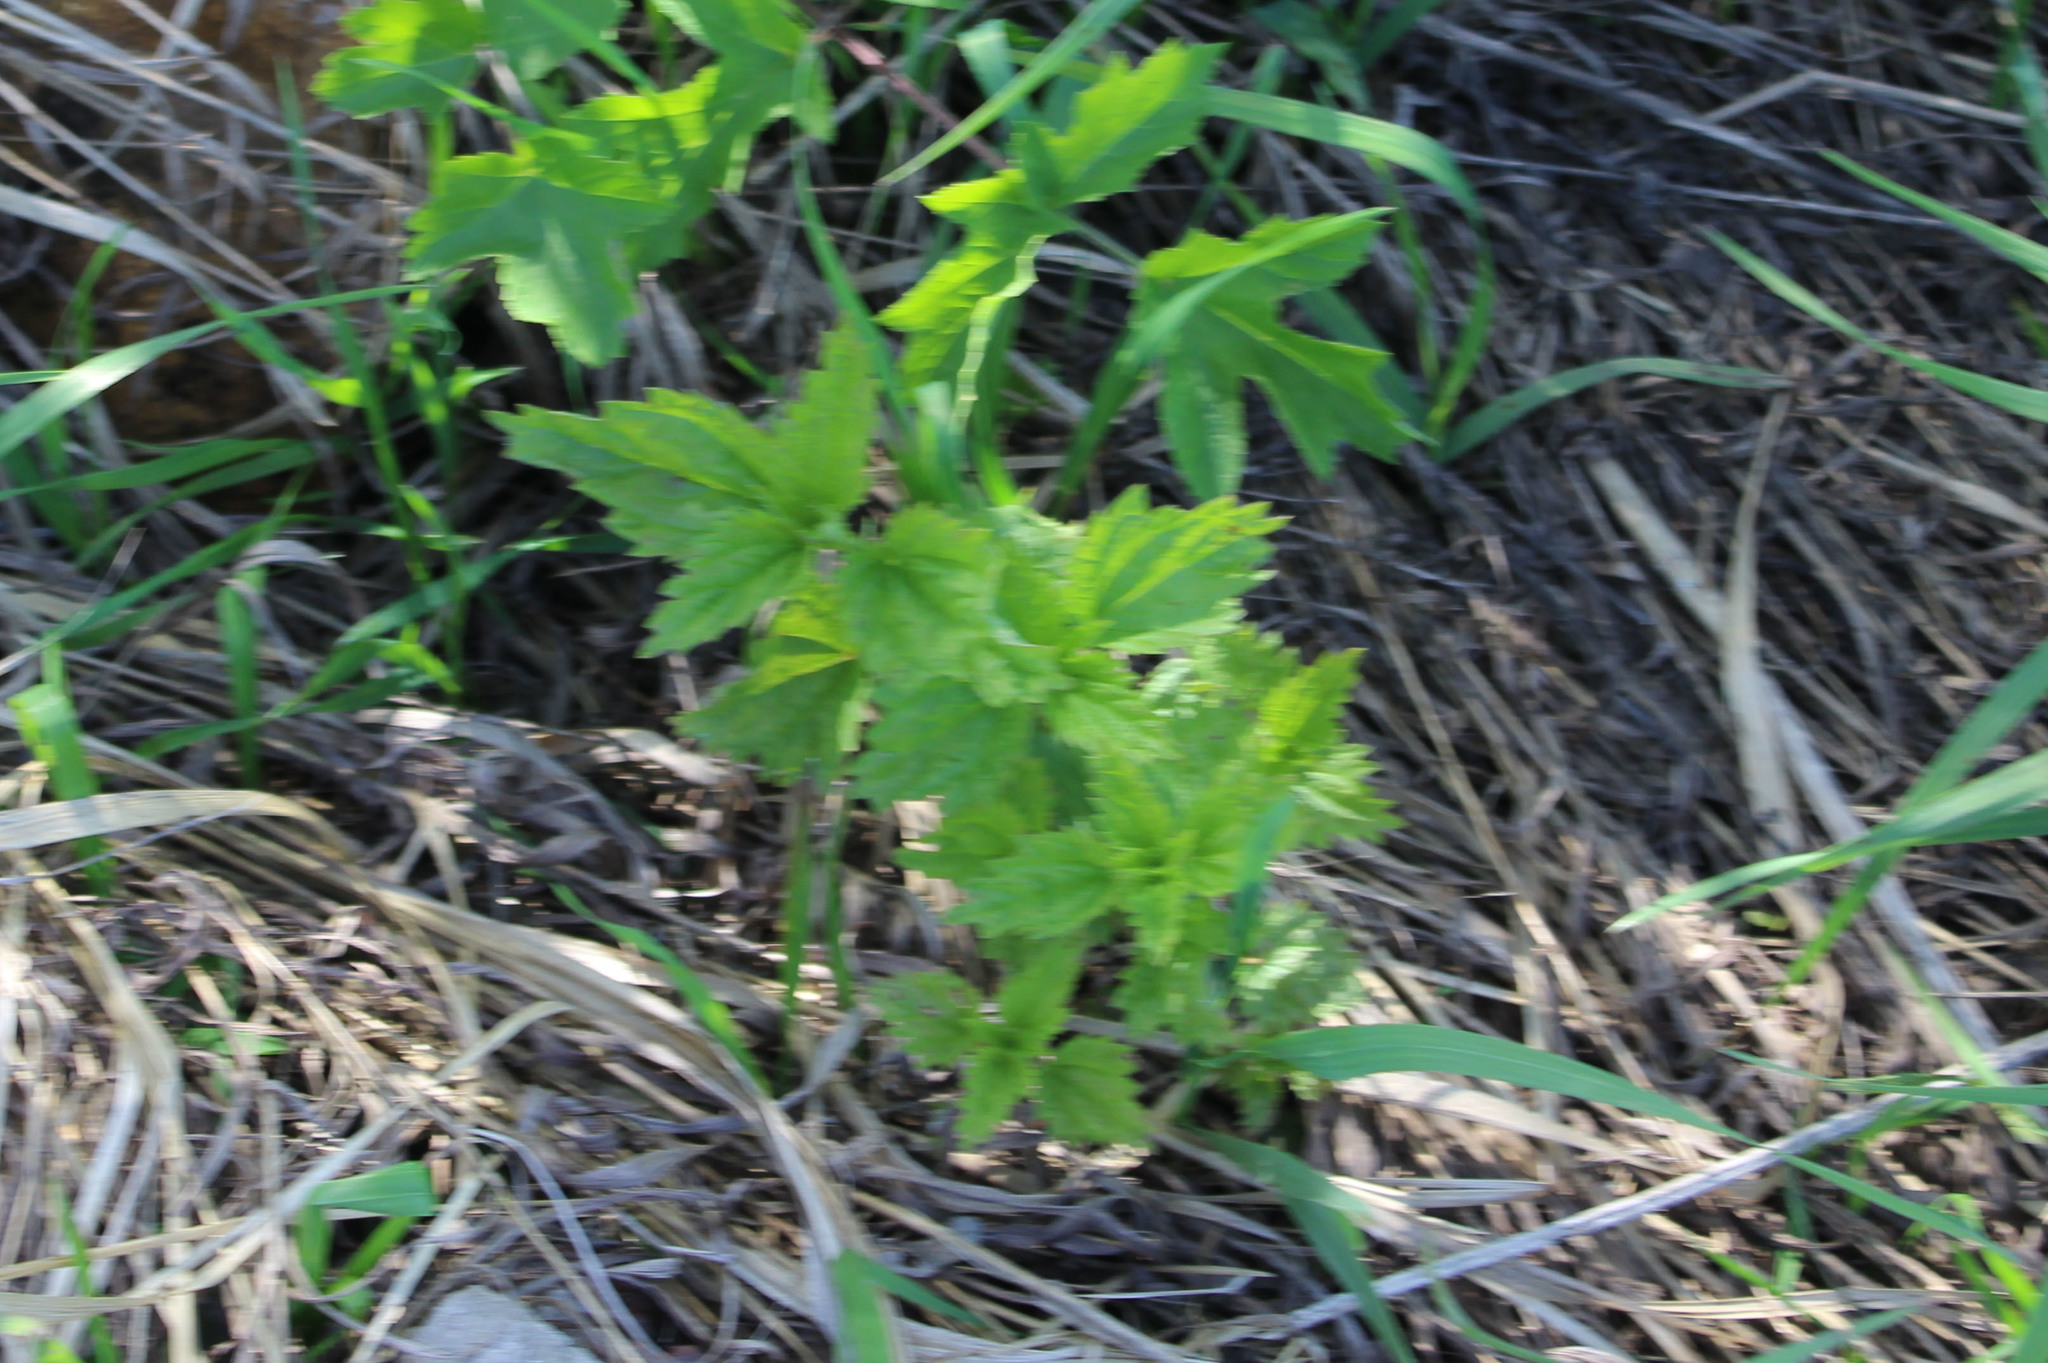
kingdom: Plantae
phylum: Tracheophyta
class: Magnoliopsida
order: Rosales
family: Urticaceae
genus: Urtica
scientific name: Urtica dioica
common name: Common nettle
